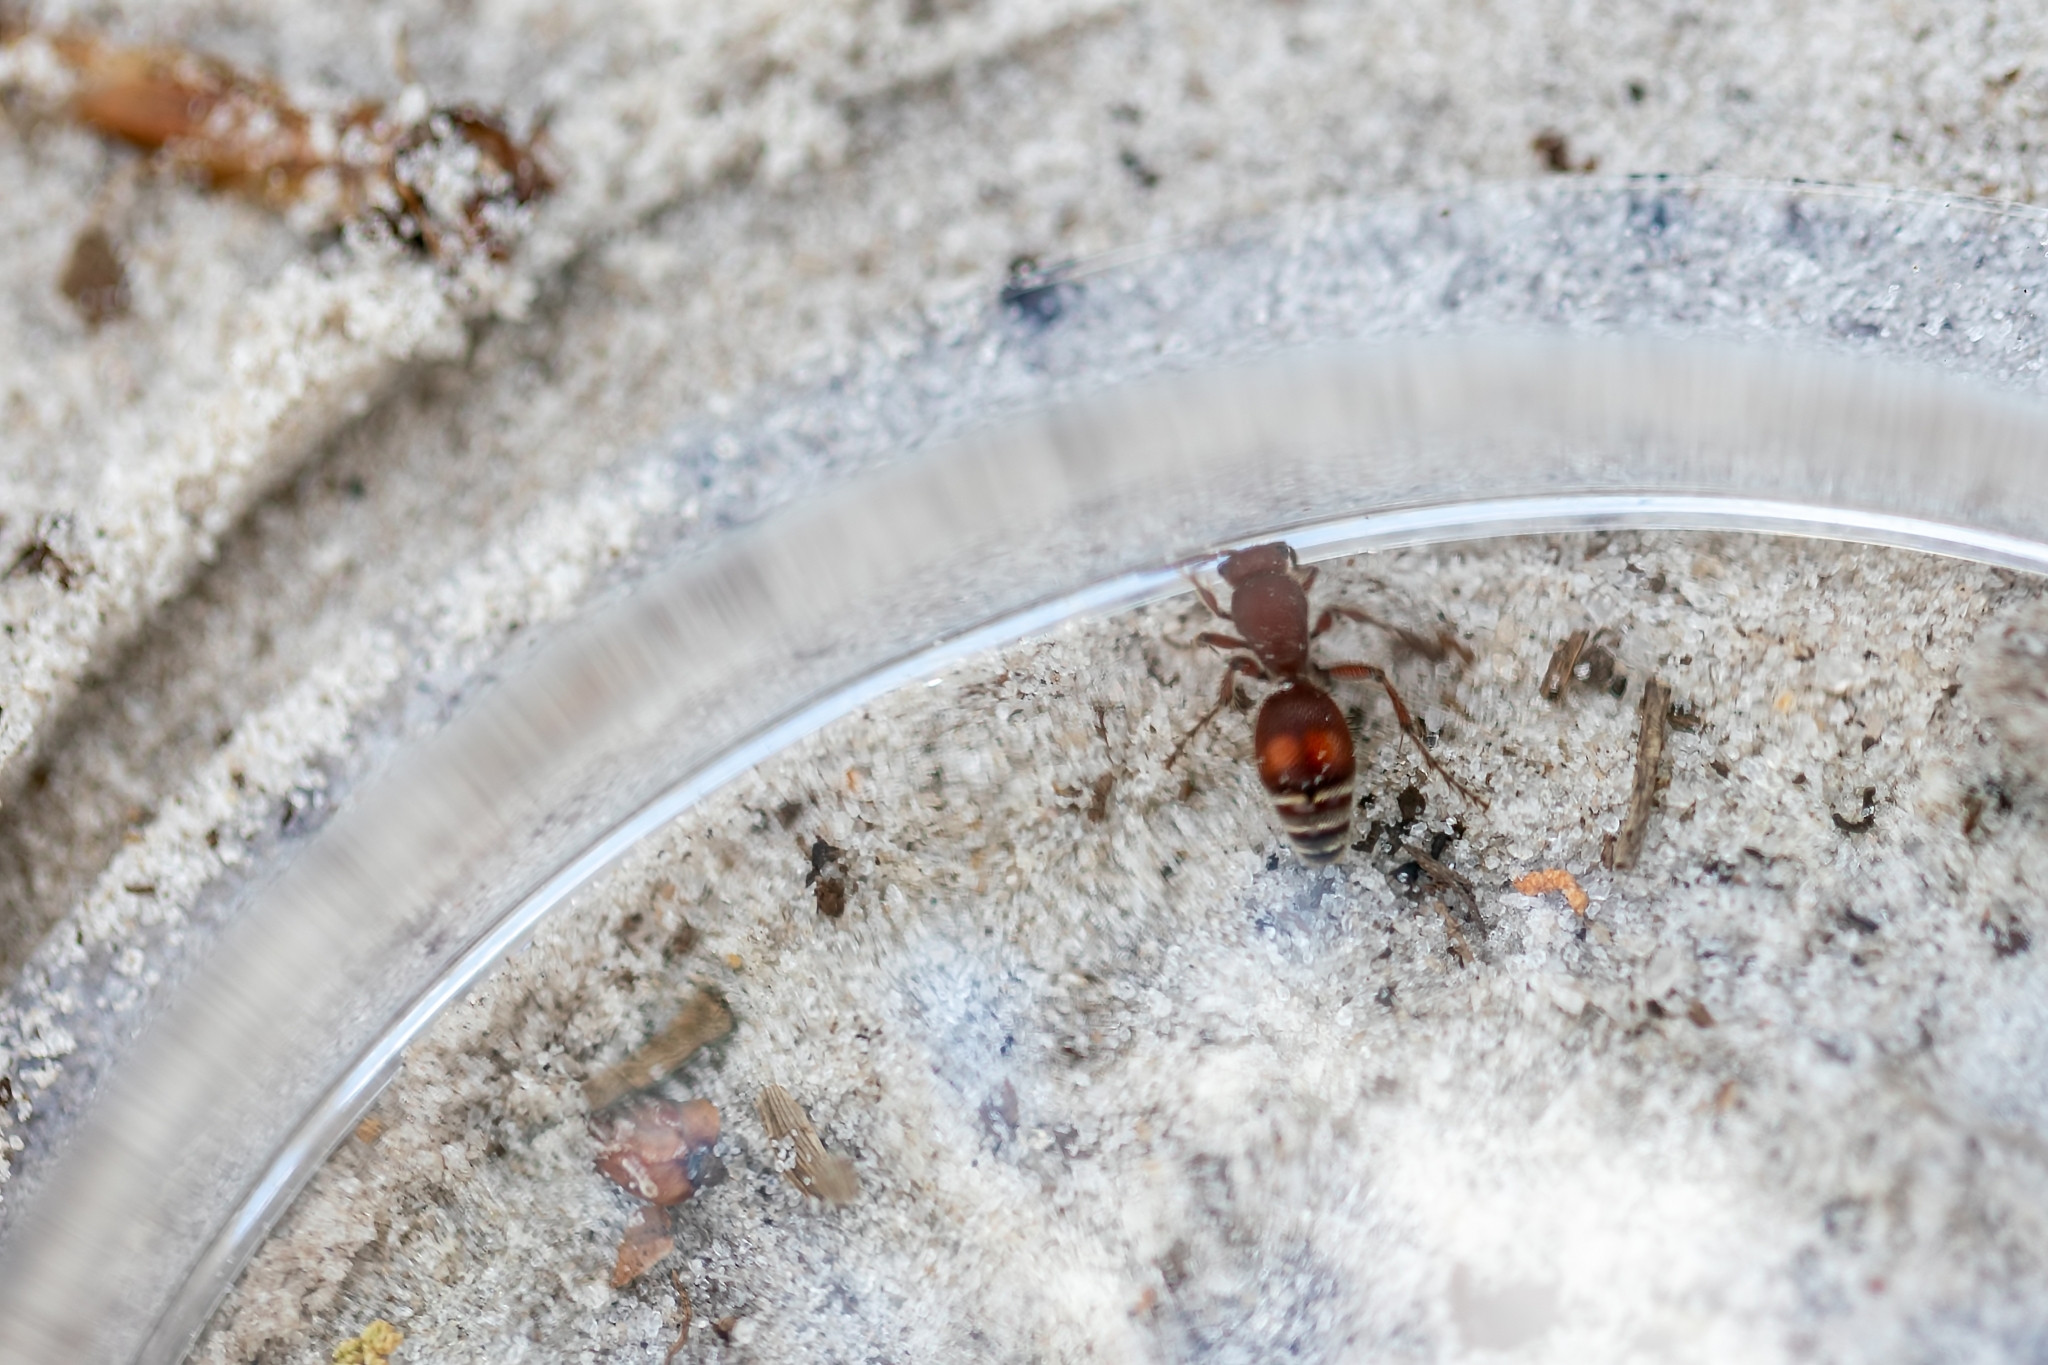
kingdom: Animalia
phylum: Arthropoda
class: Insecta
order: Hymenoptera
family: Mutillidae
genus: Dasymutilla
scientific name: Dasymutilla
